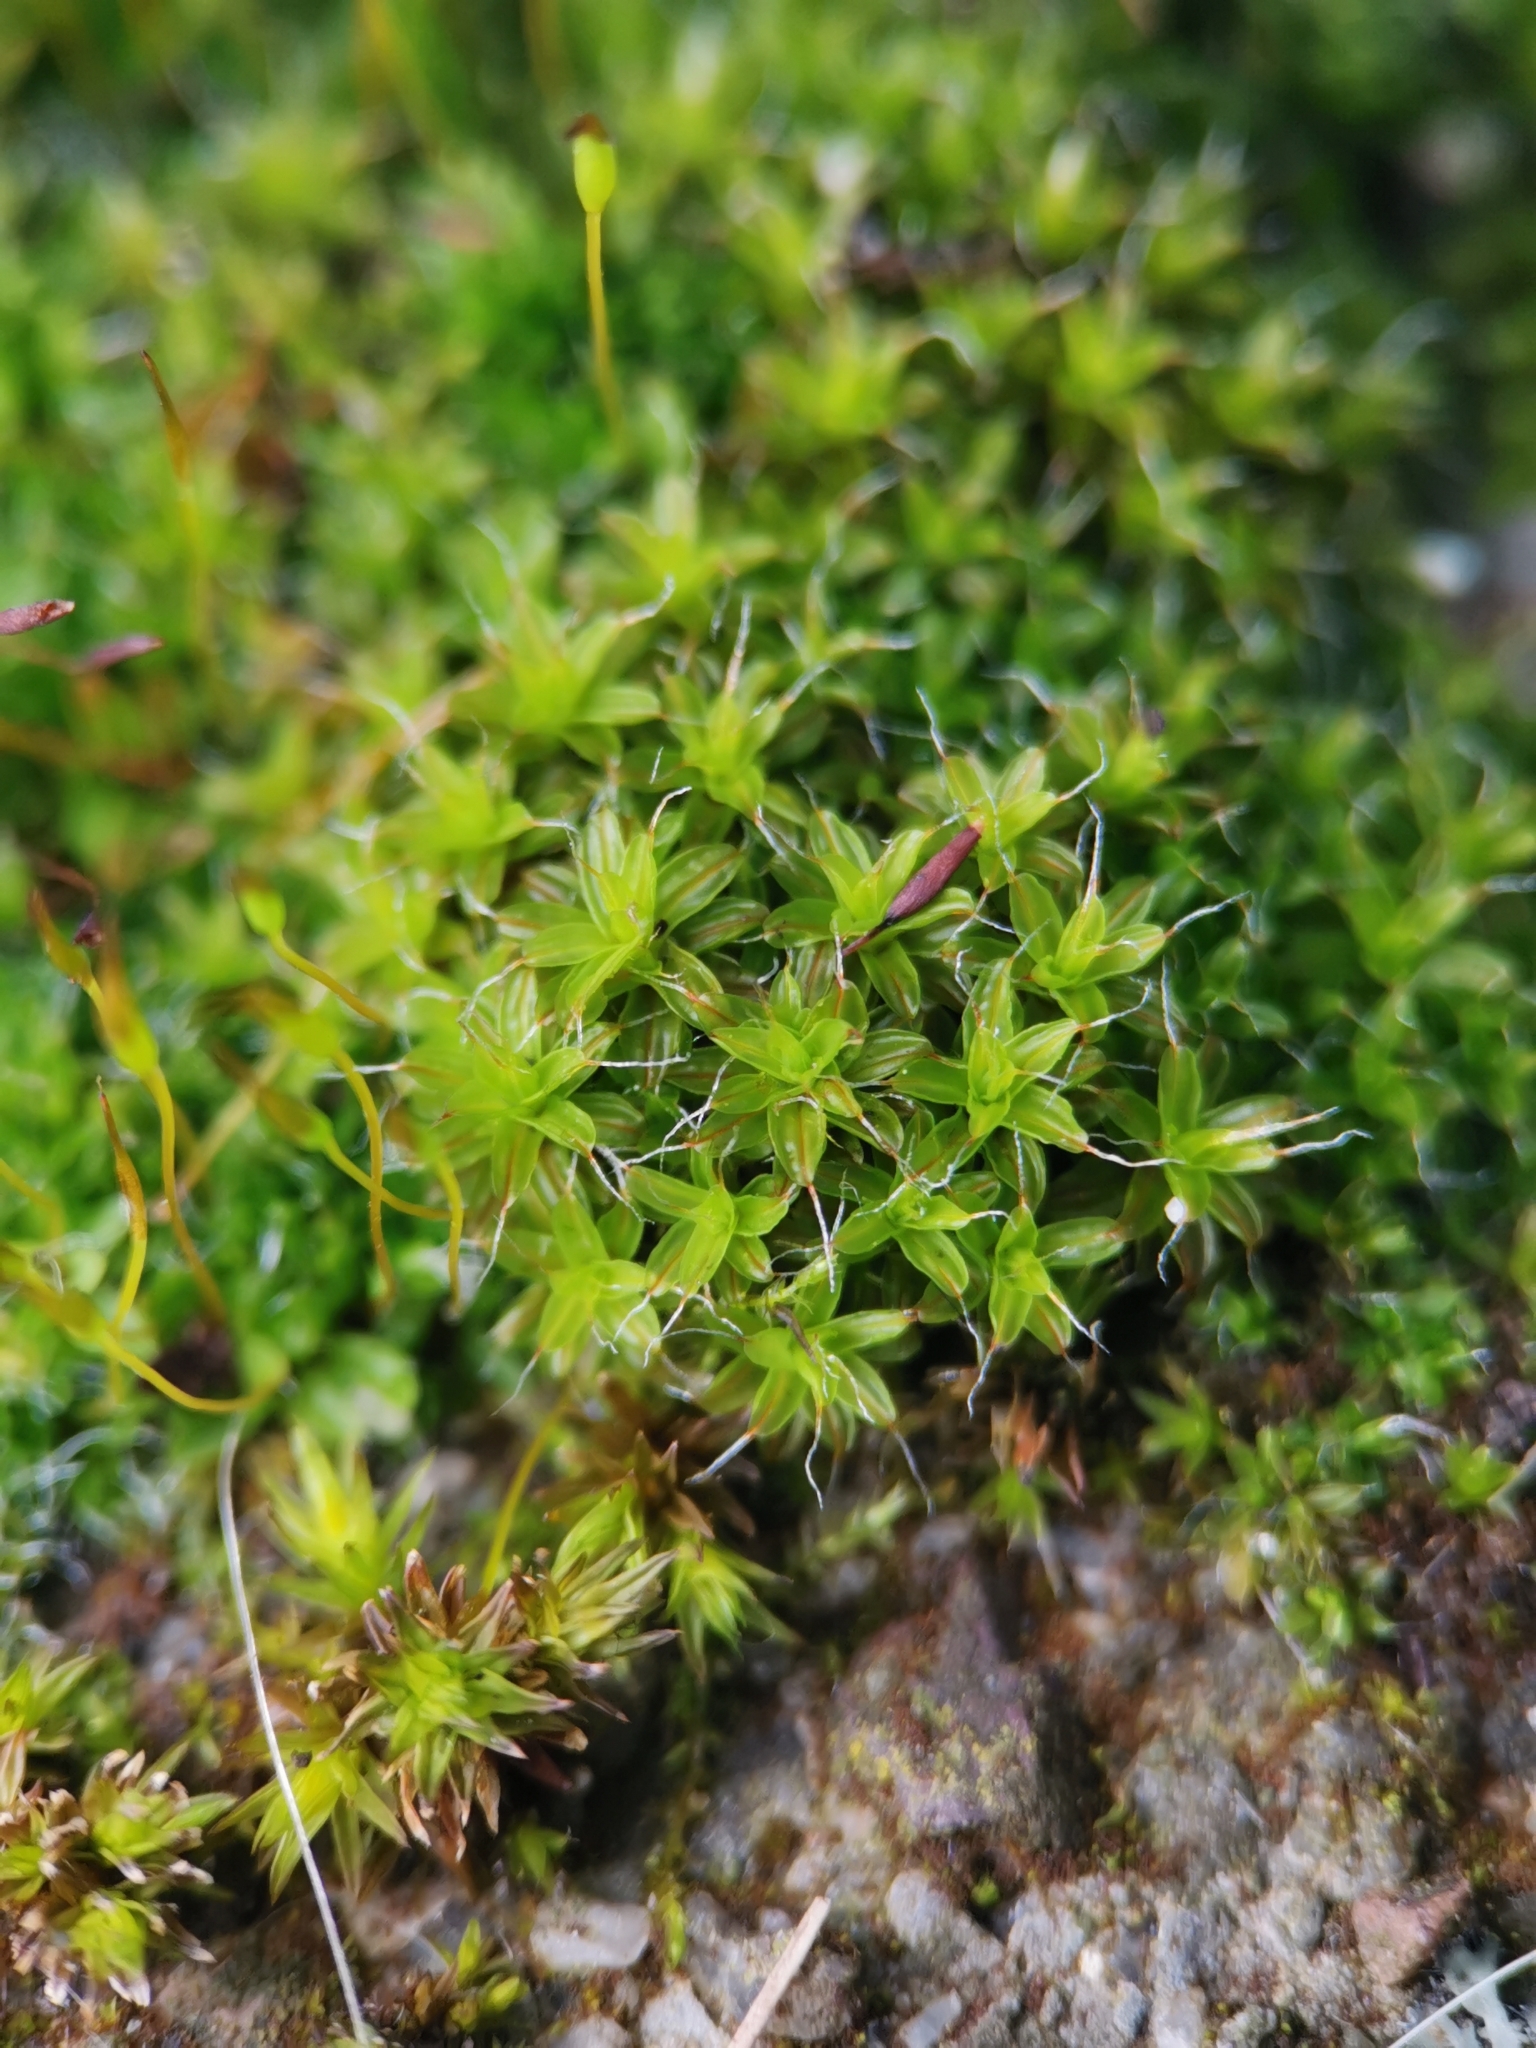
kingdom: Plantae
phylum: Bryophyta
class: Bryopsida
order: Pottiales
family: Pottiaceae
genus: Syntrichia
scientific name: Syntrichia ruralis
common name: Sidewalk screw moss
